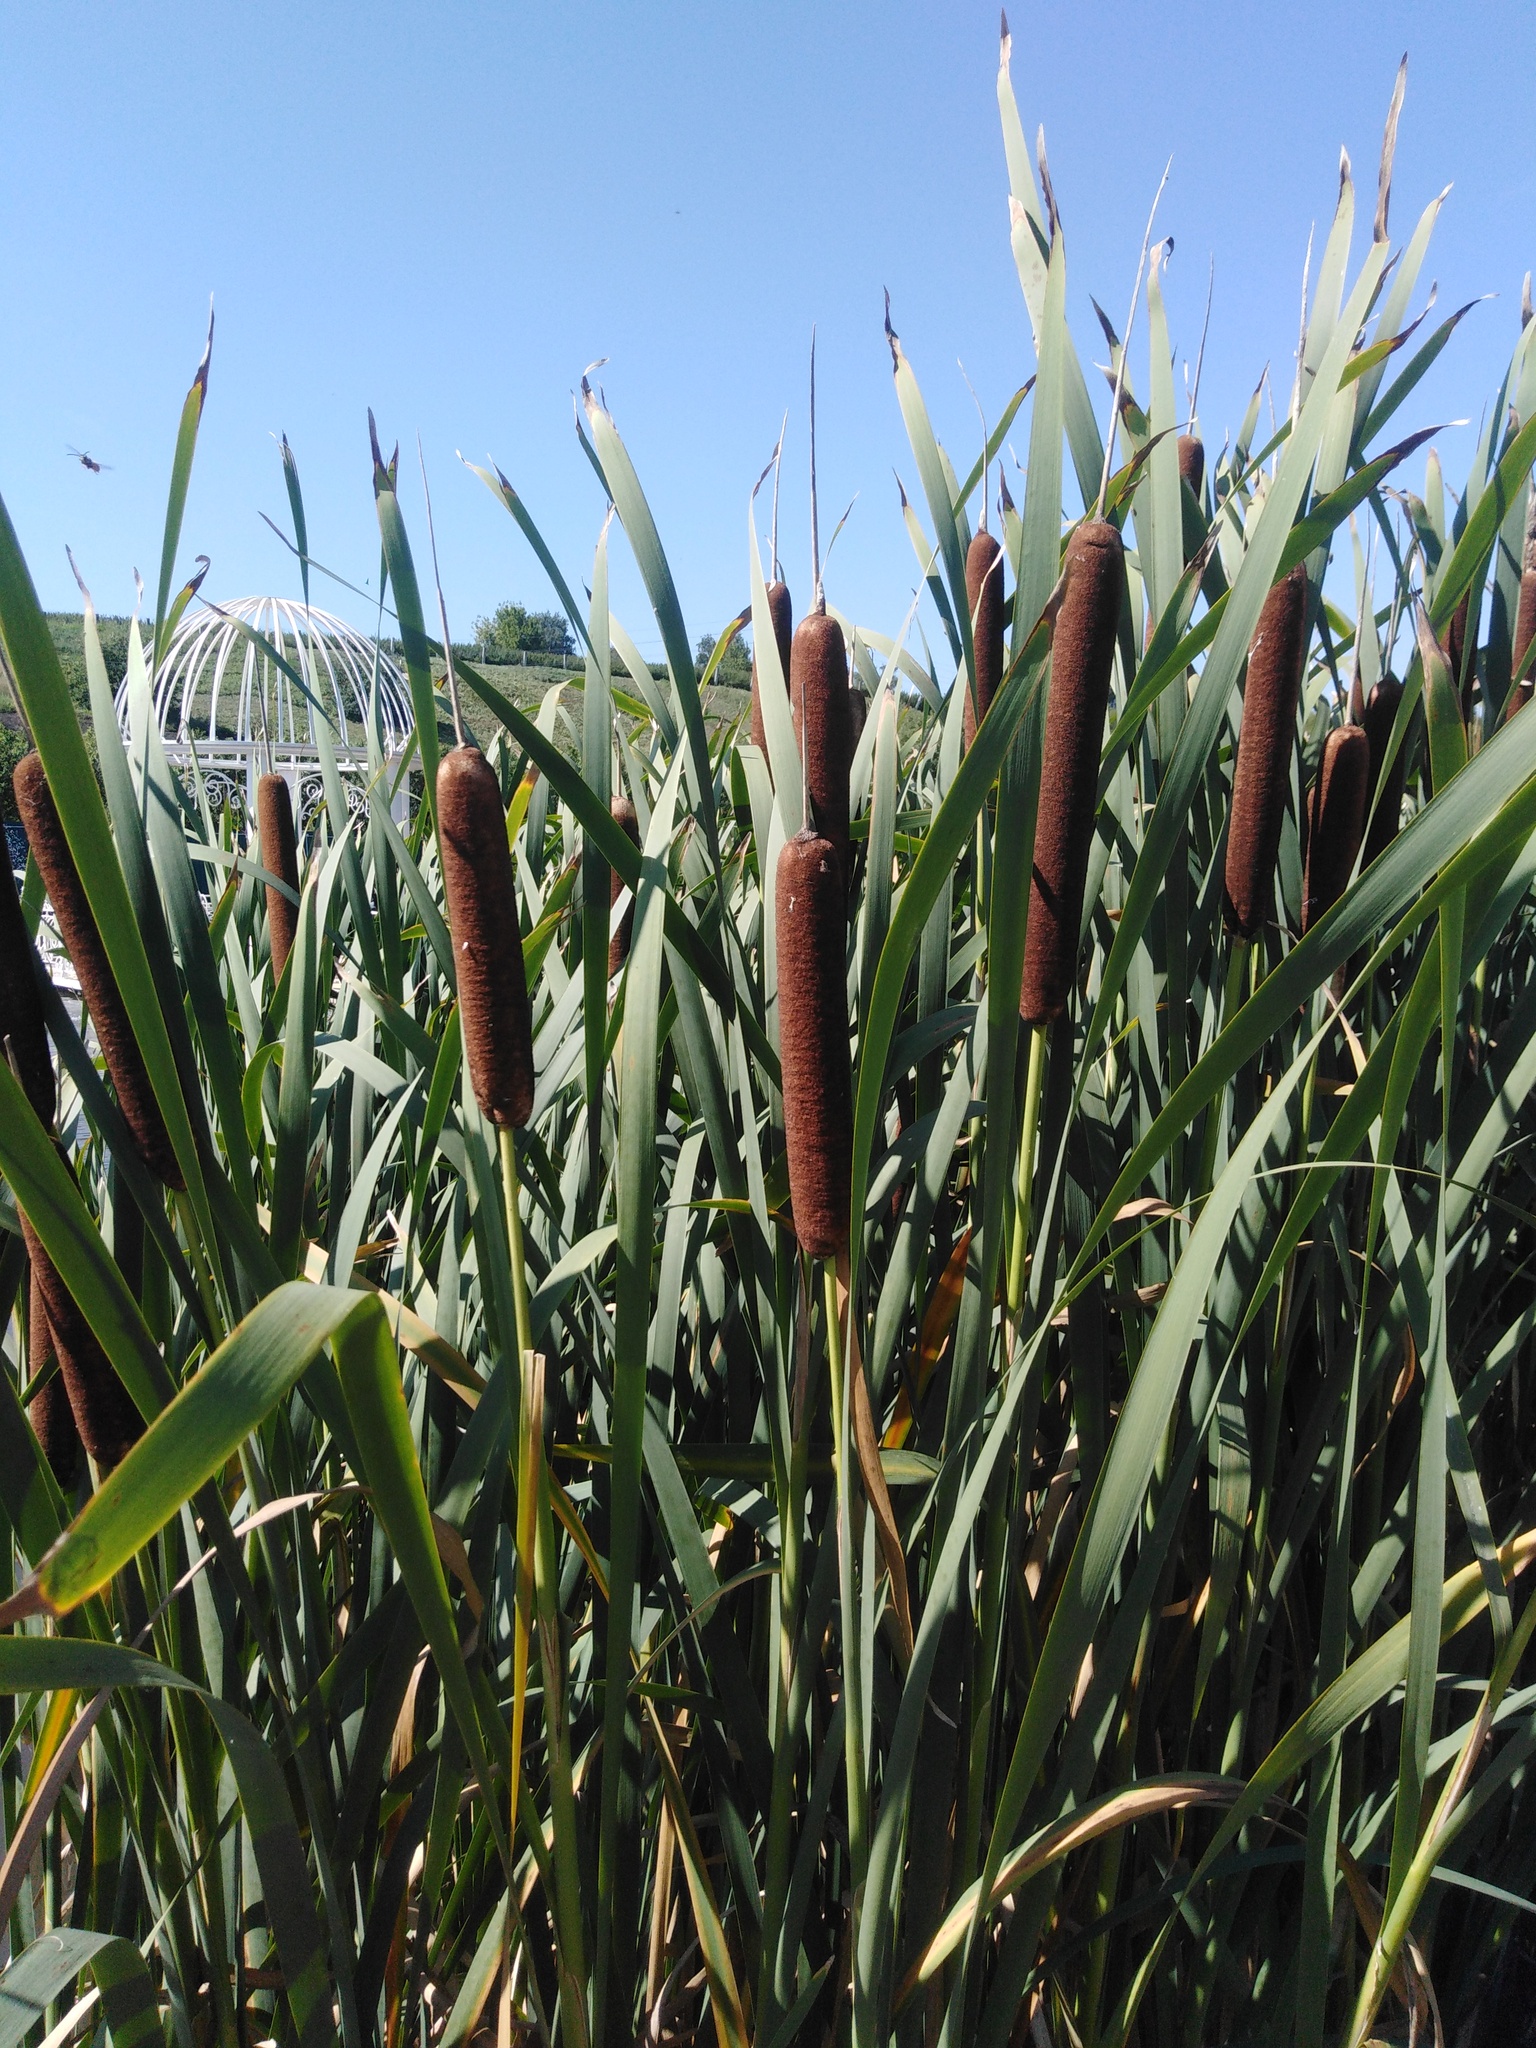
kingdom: Plantae
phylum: Tracheophyta
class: Liliopsida
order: Poales
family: Typhaceae
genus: Typha
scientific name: Typha latifolia
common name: Broadleaf cattail
